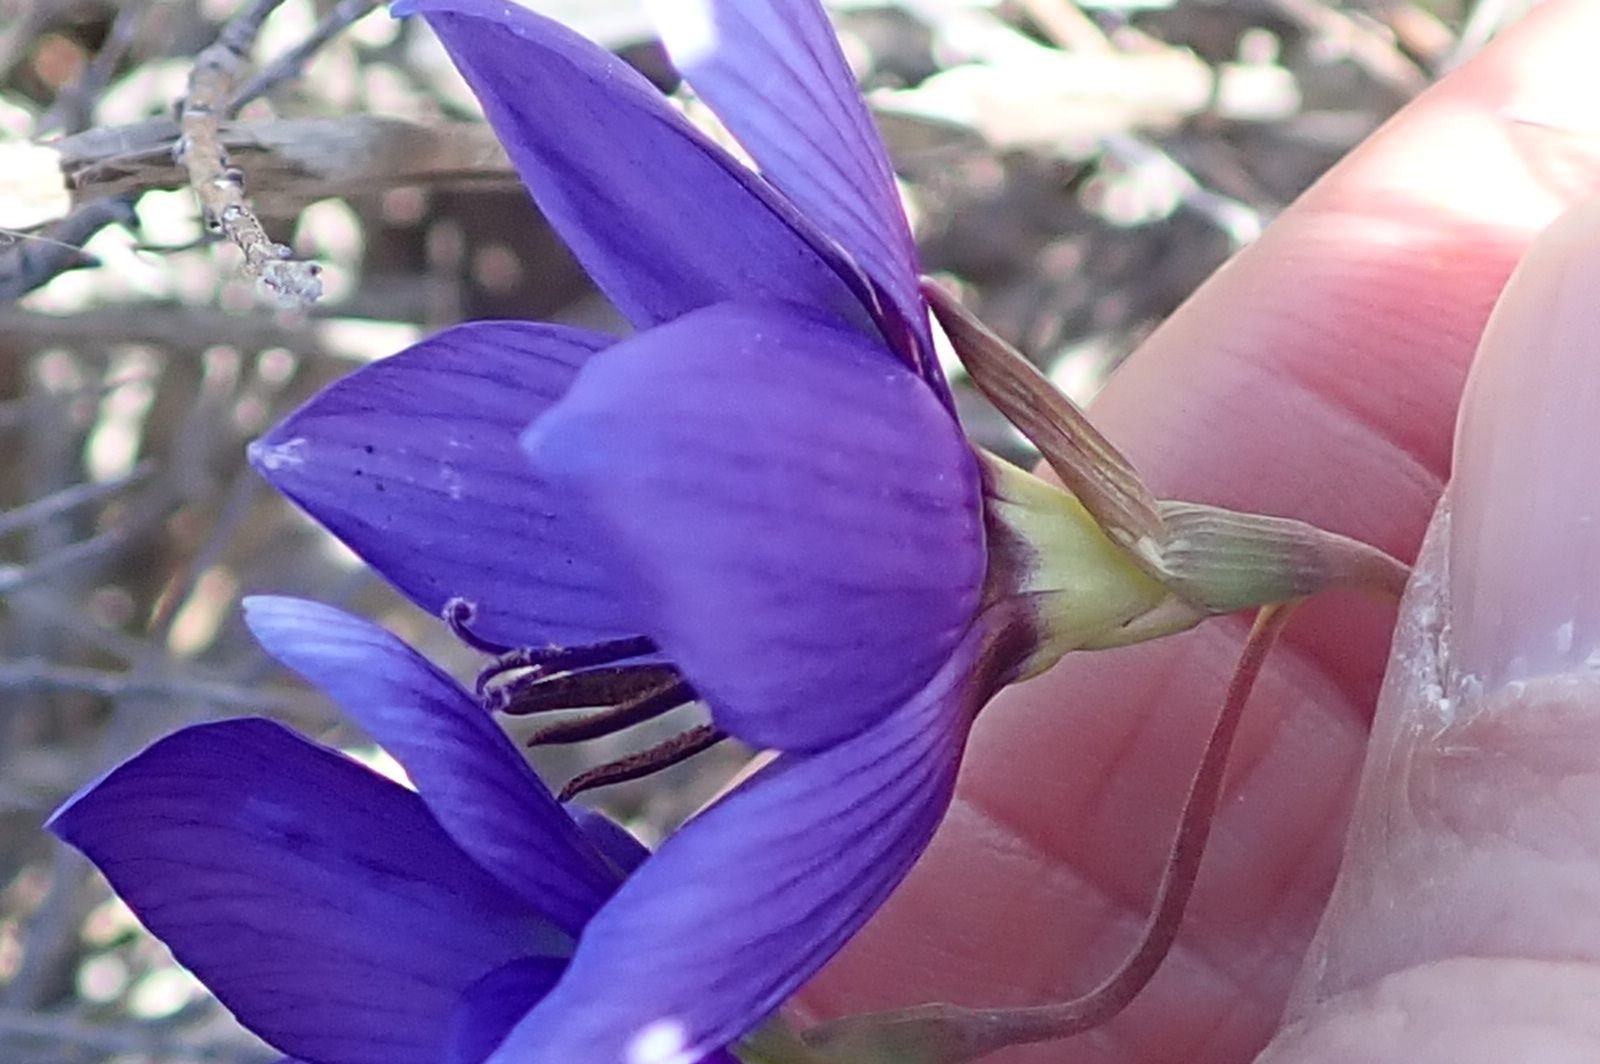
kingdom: Plantae
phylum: Tracheophyta
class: Liliopsida
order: Asparagales
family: Iridaceae
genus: Geissorhiza
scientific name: Geissorhiza splendidissima
